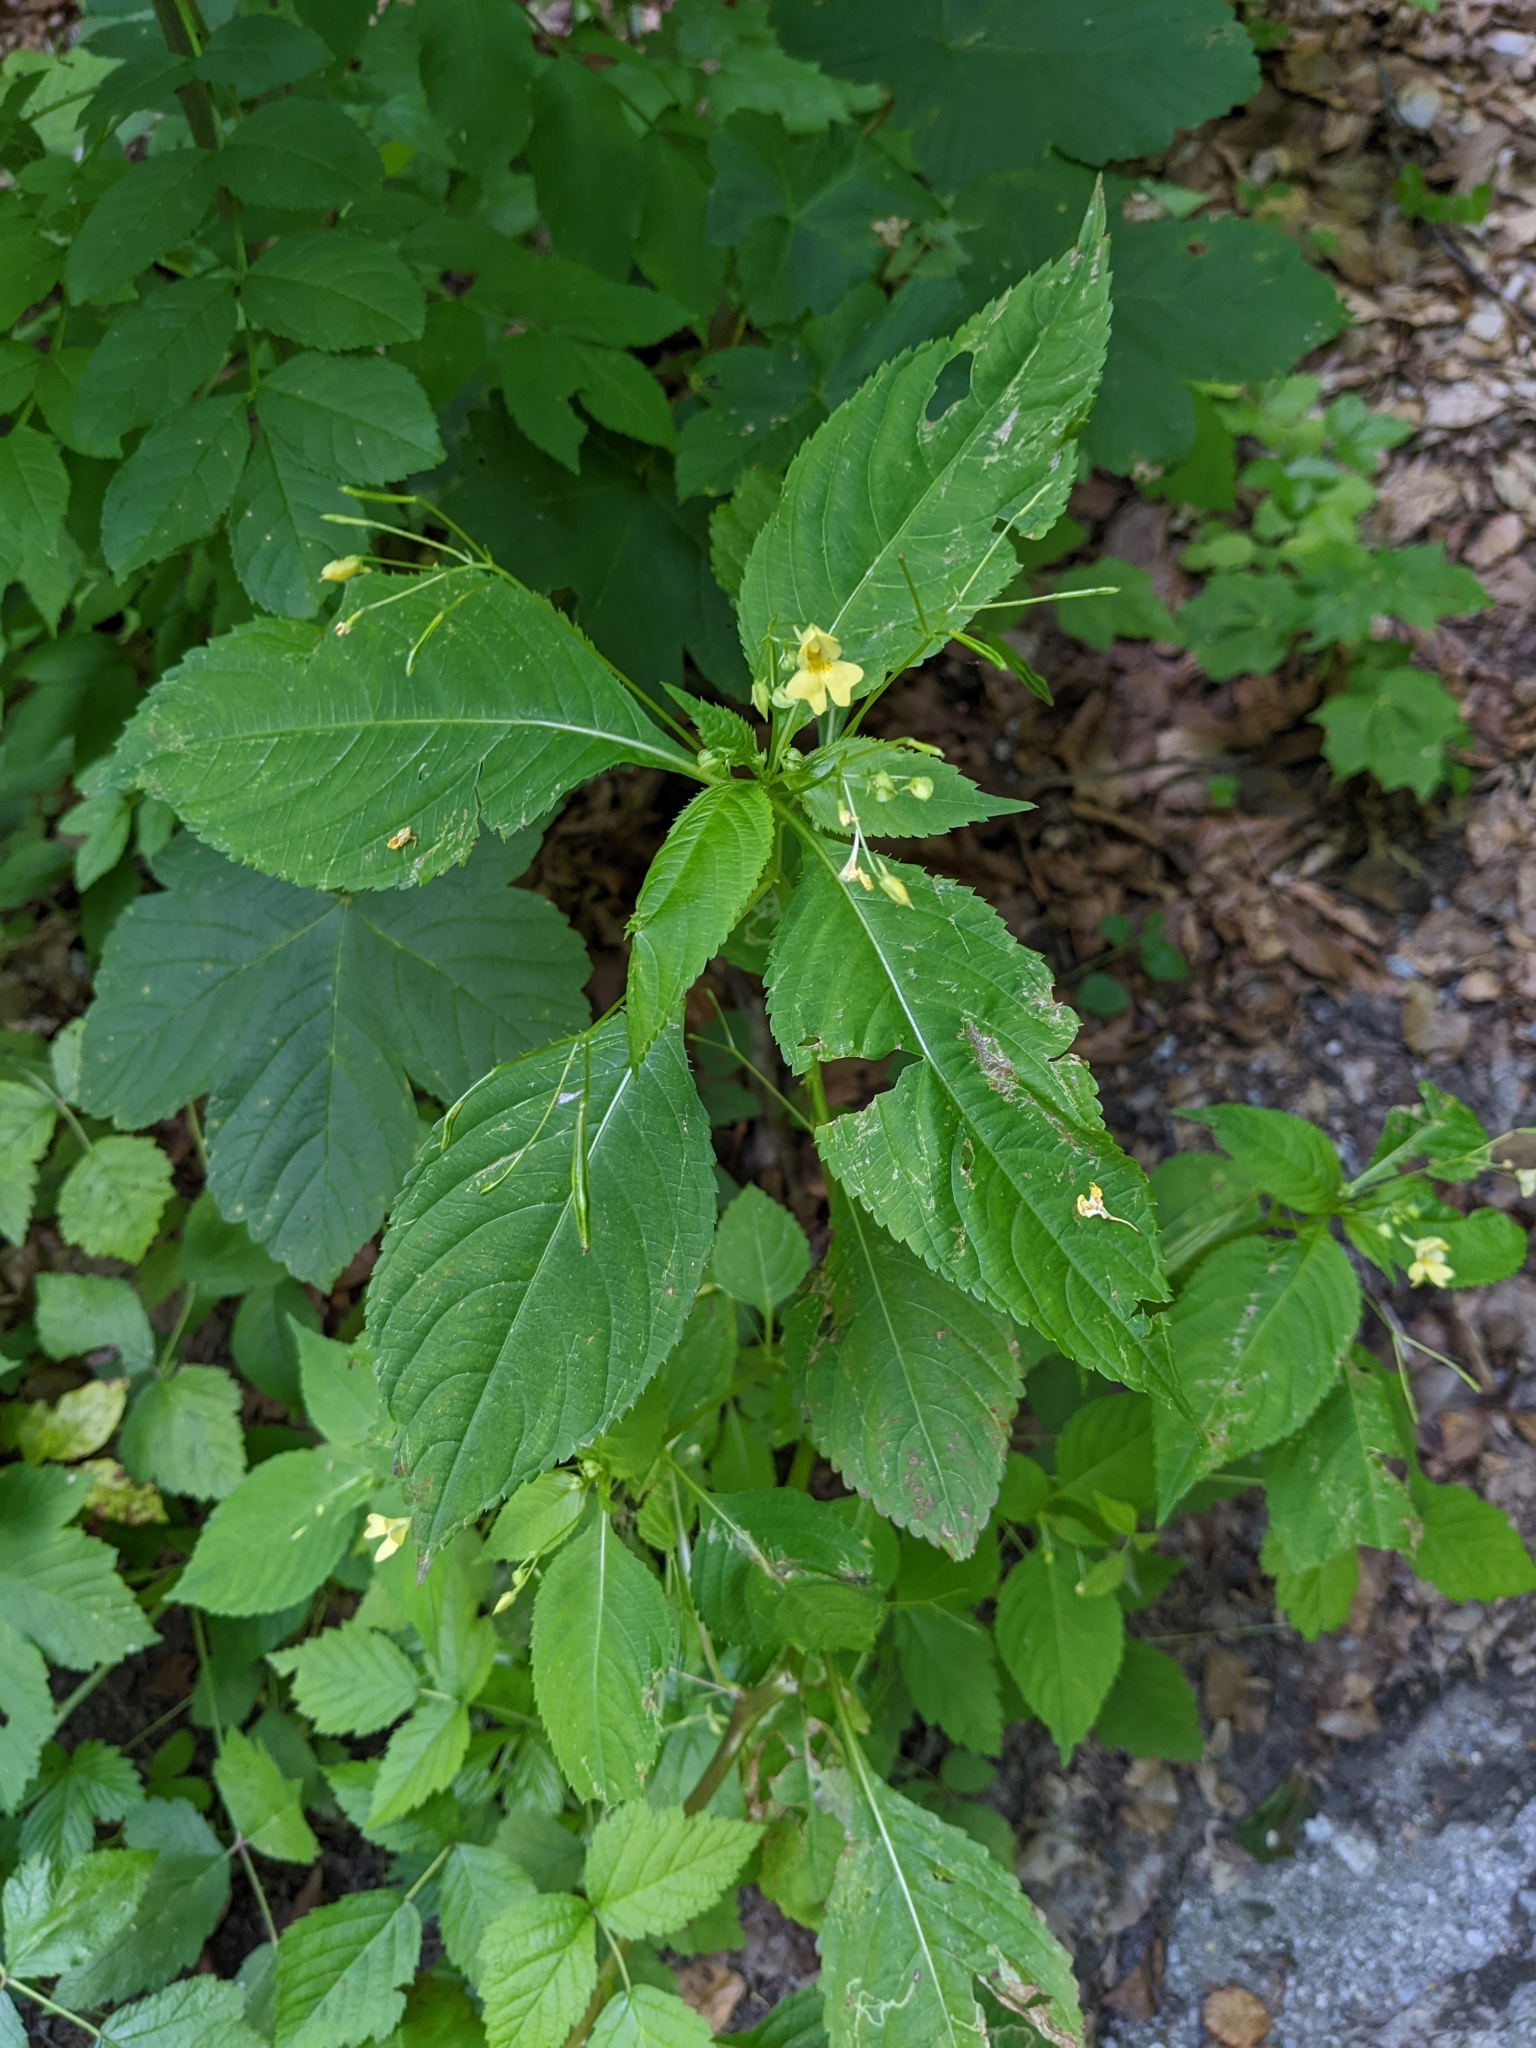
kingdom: Plantae
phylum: Tracheophyta
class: Magnoliopsida
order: Ericales
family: Balsaminaceae
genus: Impatiens
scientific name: Impatiens parviflora
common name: Small balsam
